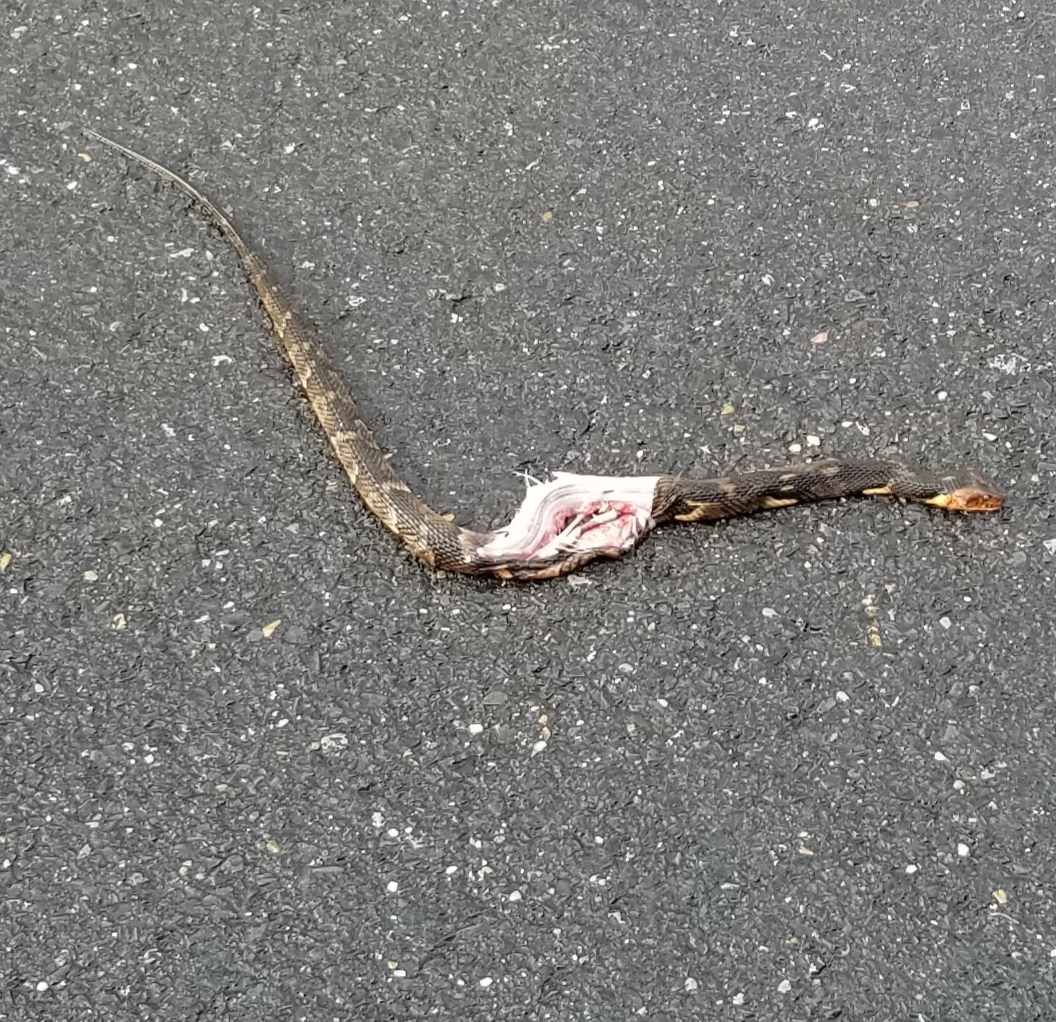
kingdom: Animalia
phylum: Chordata
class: Squamata
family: Colubridae
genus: Nerodia
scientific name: Nerodia fasciata
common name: Southern water snake
